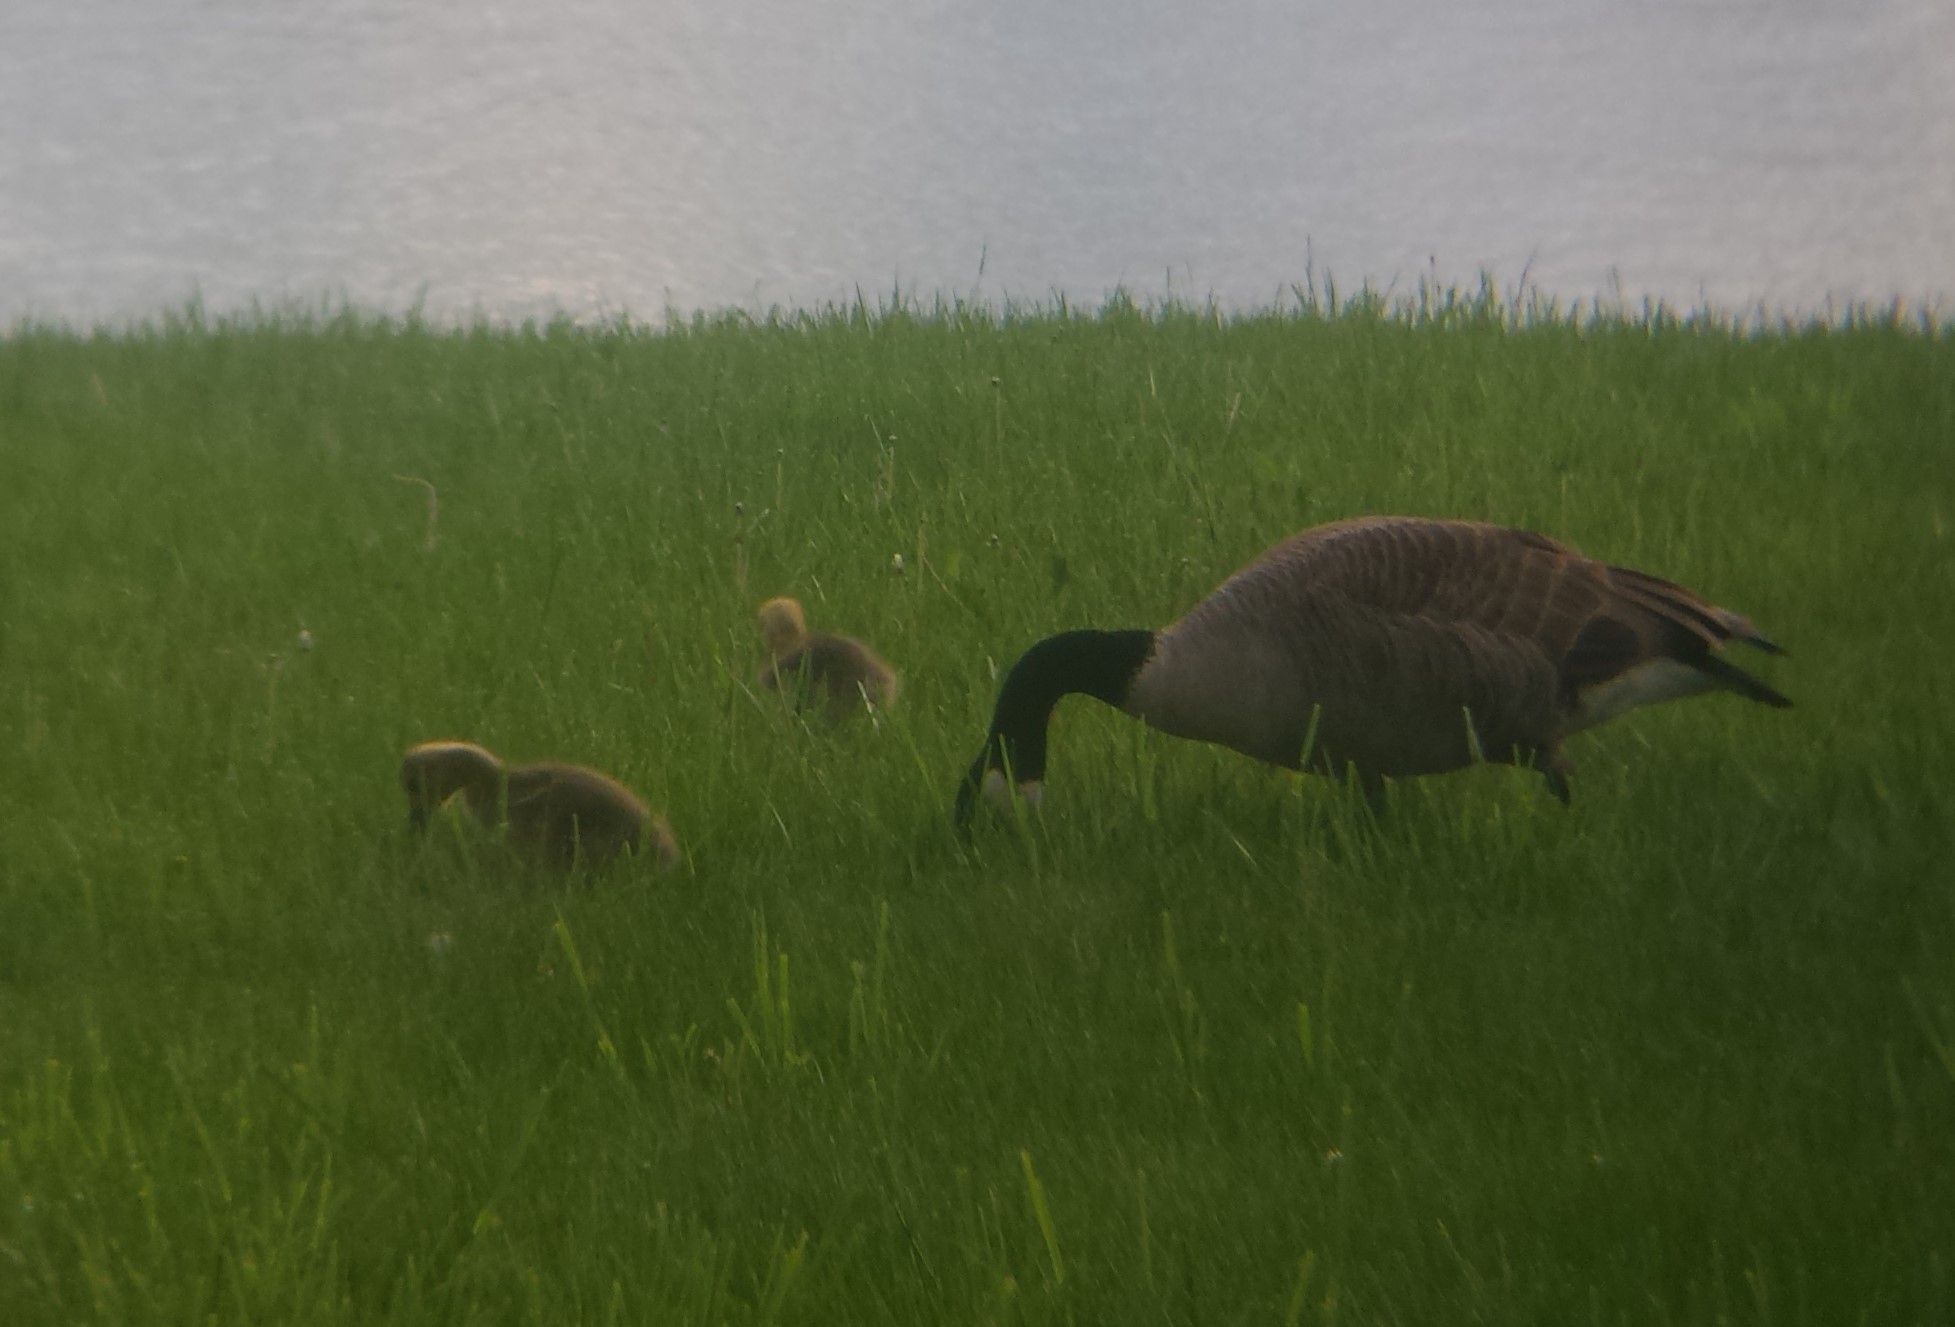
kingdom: Animalia
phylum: Chordata
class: Aves
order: Anseriformes
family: Anatidae
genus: Branta
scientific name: Branta canadensis
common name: Canada goose
